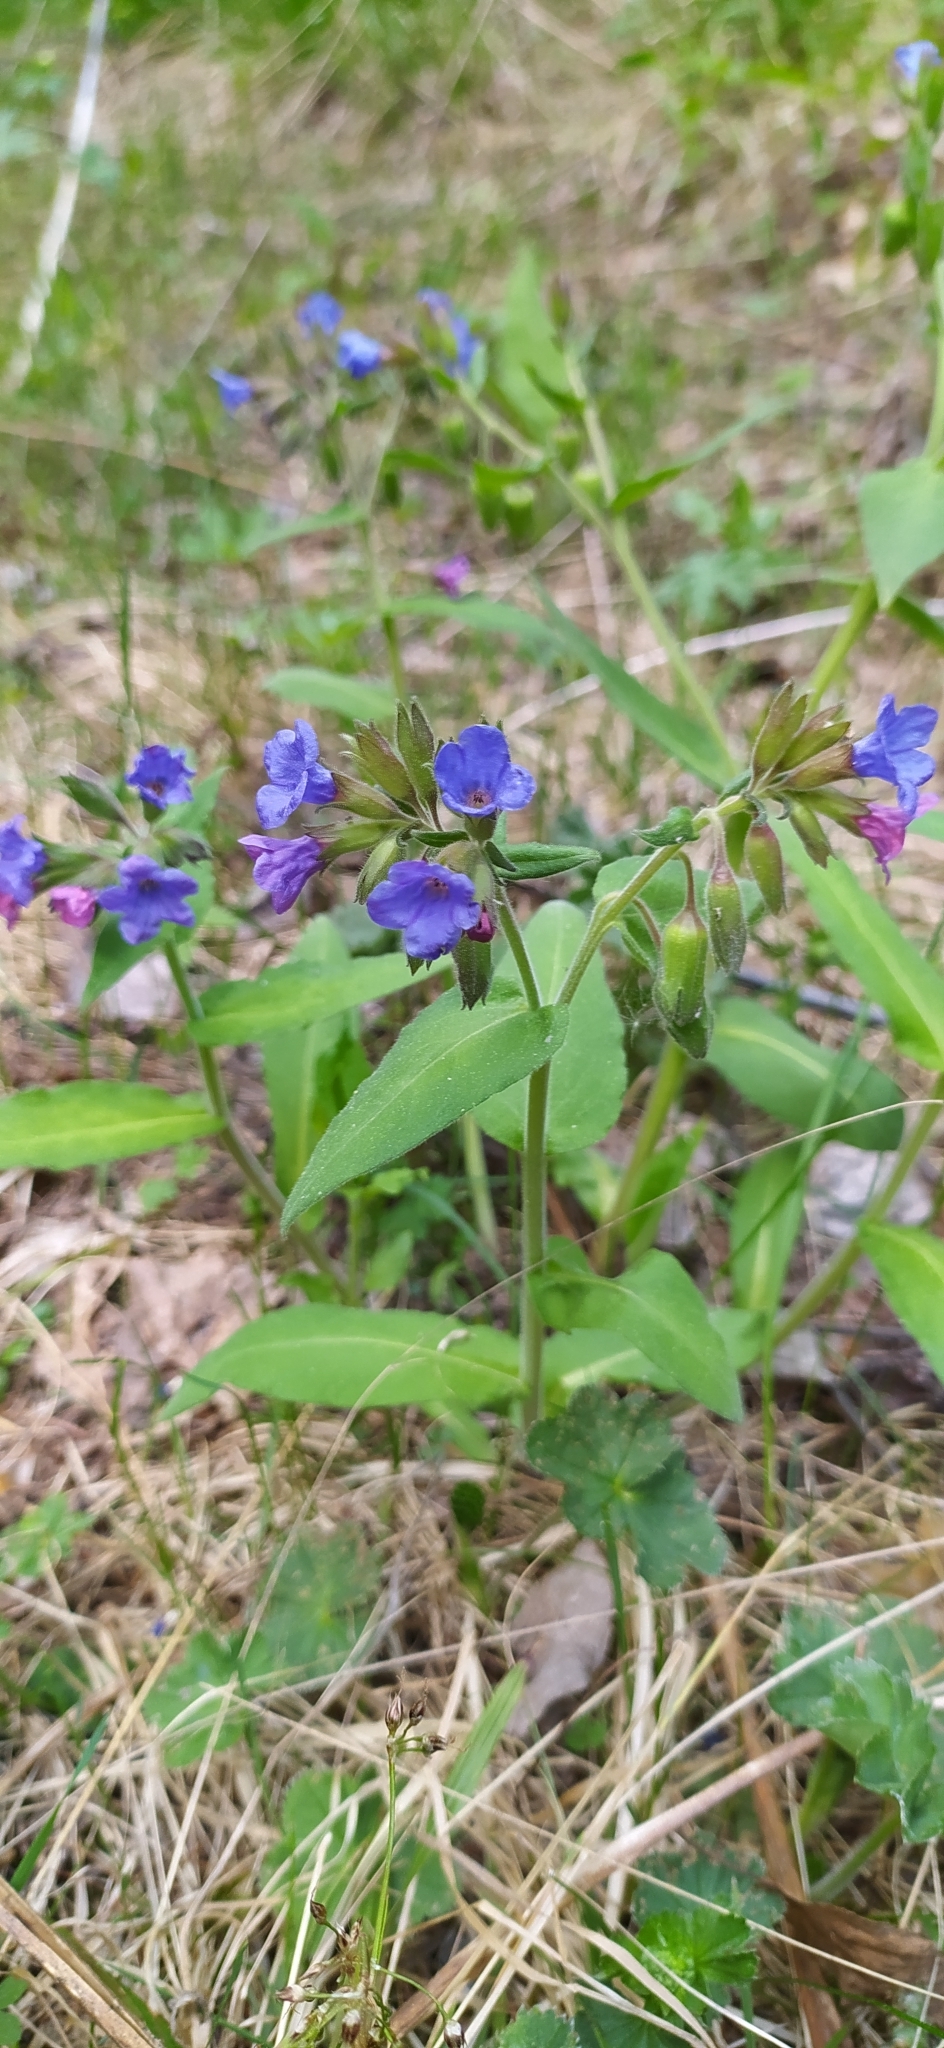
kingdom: Plantae
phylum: Tracheophyta
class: Magnoliopsida
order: Boraginales
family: Boraginaceae
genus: Pulmonaria
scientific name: Pulmonaria mollis
